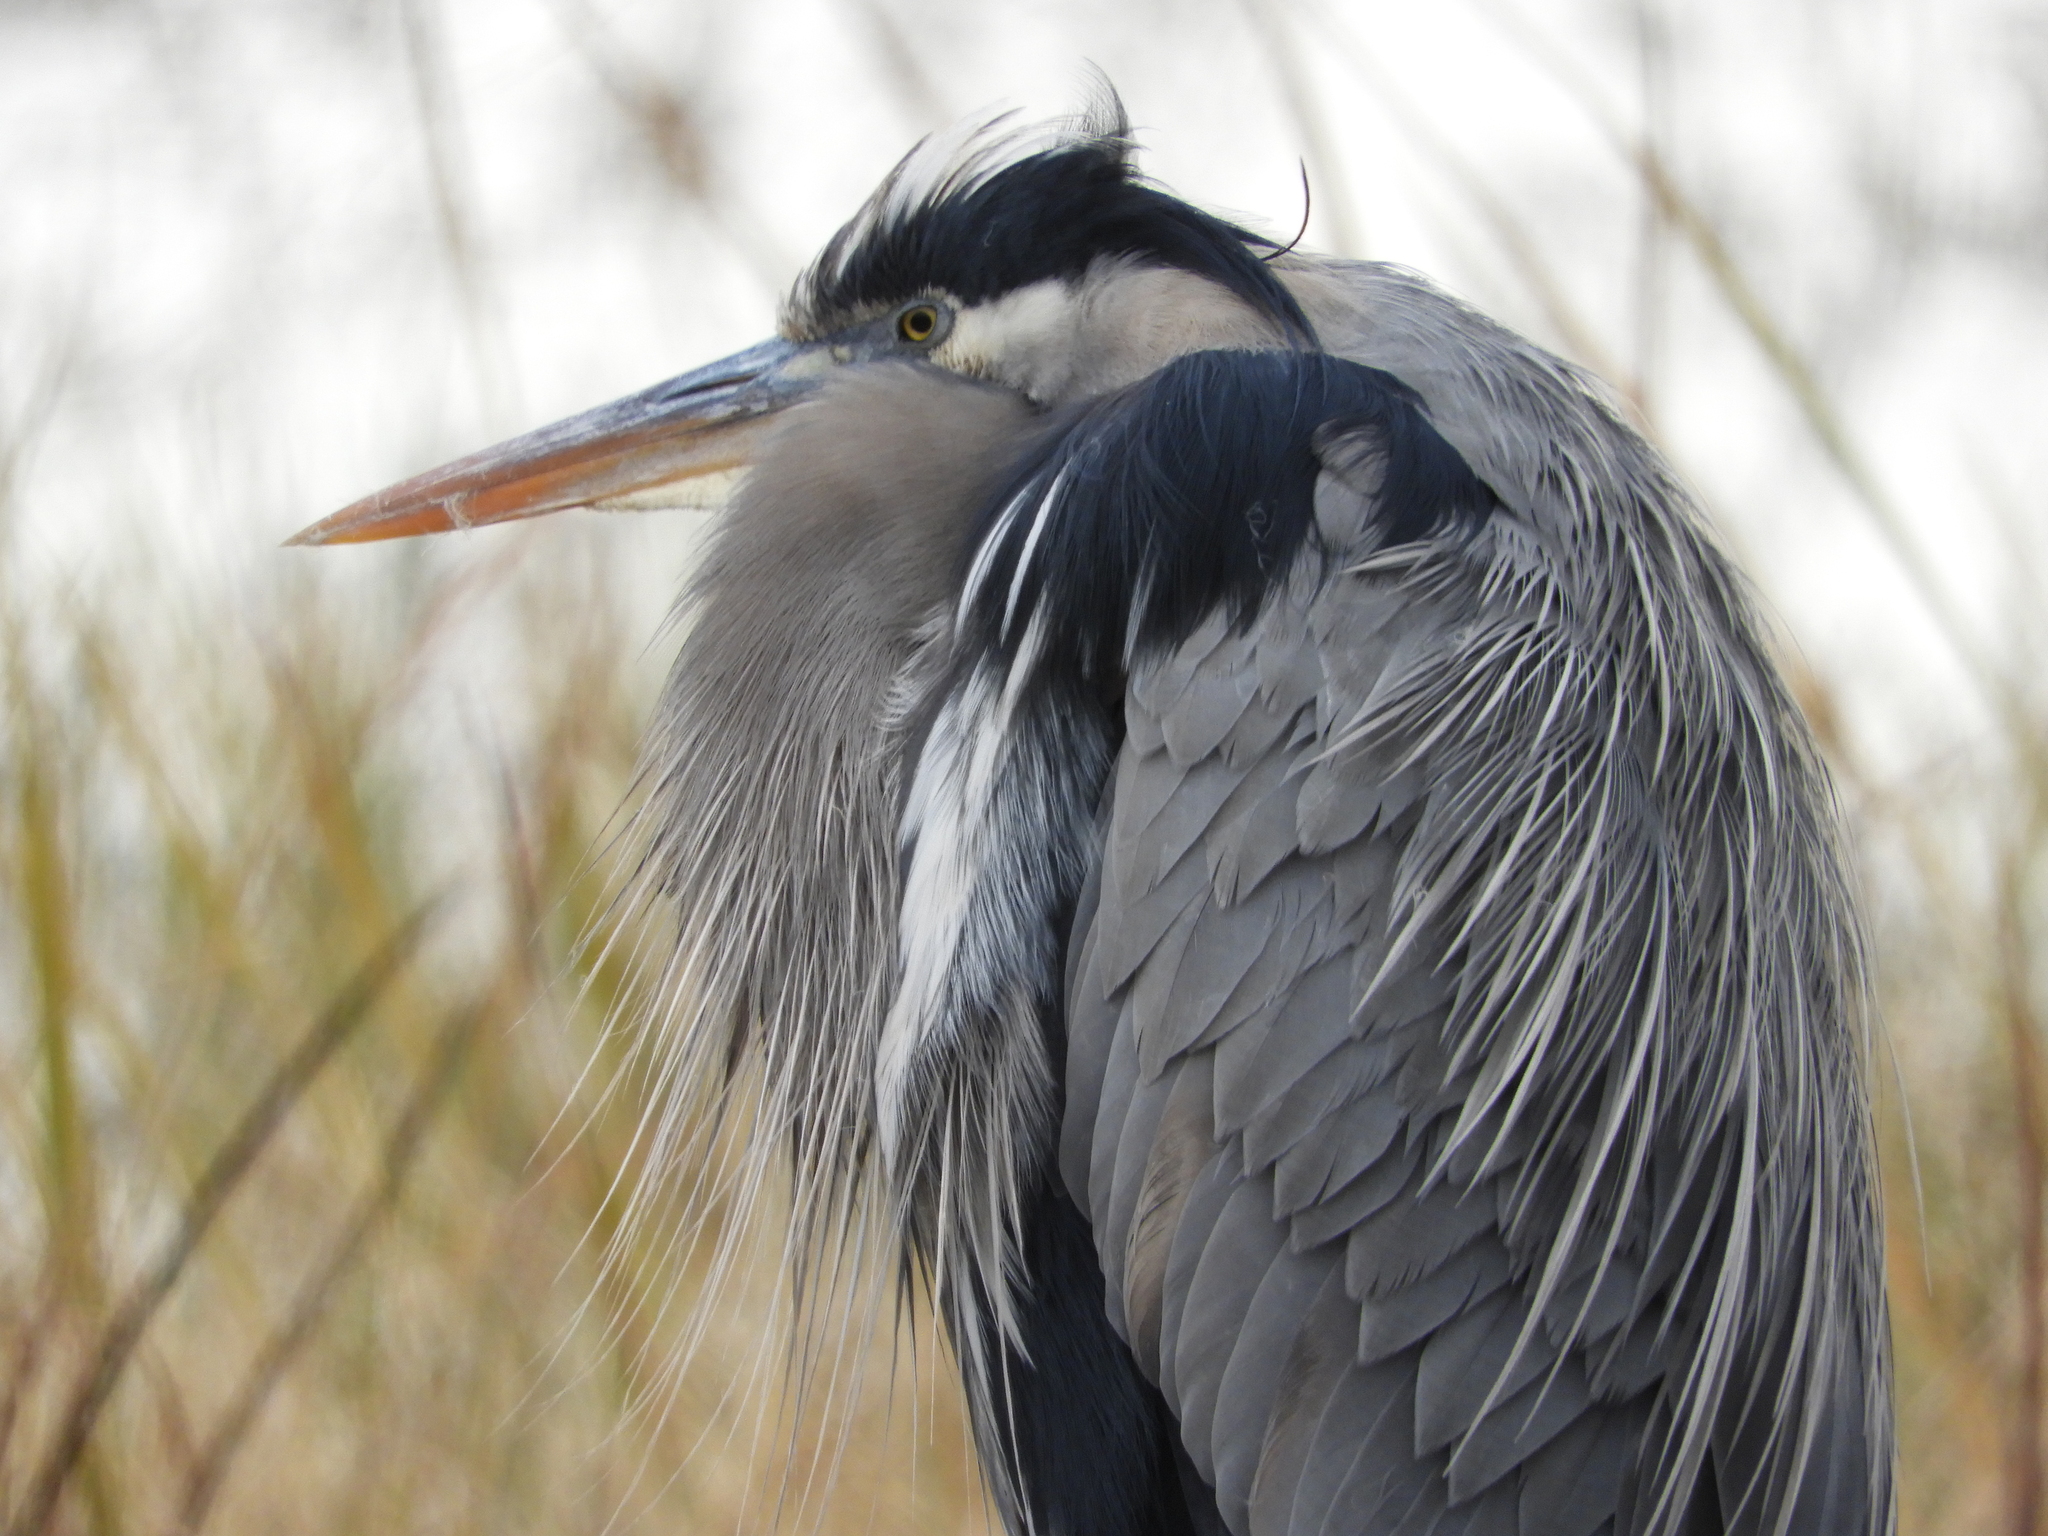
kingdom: Animalia
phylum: Chordata
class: Aves
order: Pelecaniformes
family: Ardeidae
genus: Ardea
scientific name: Ardea herodias
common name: Great blue heron
